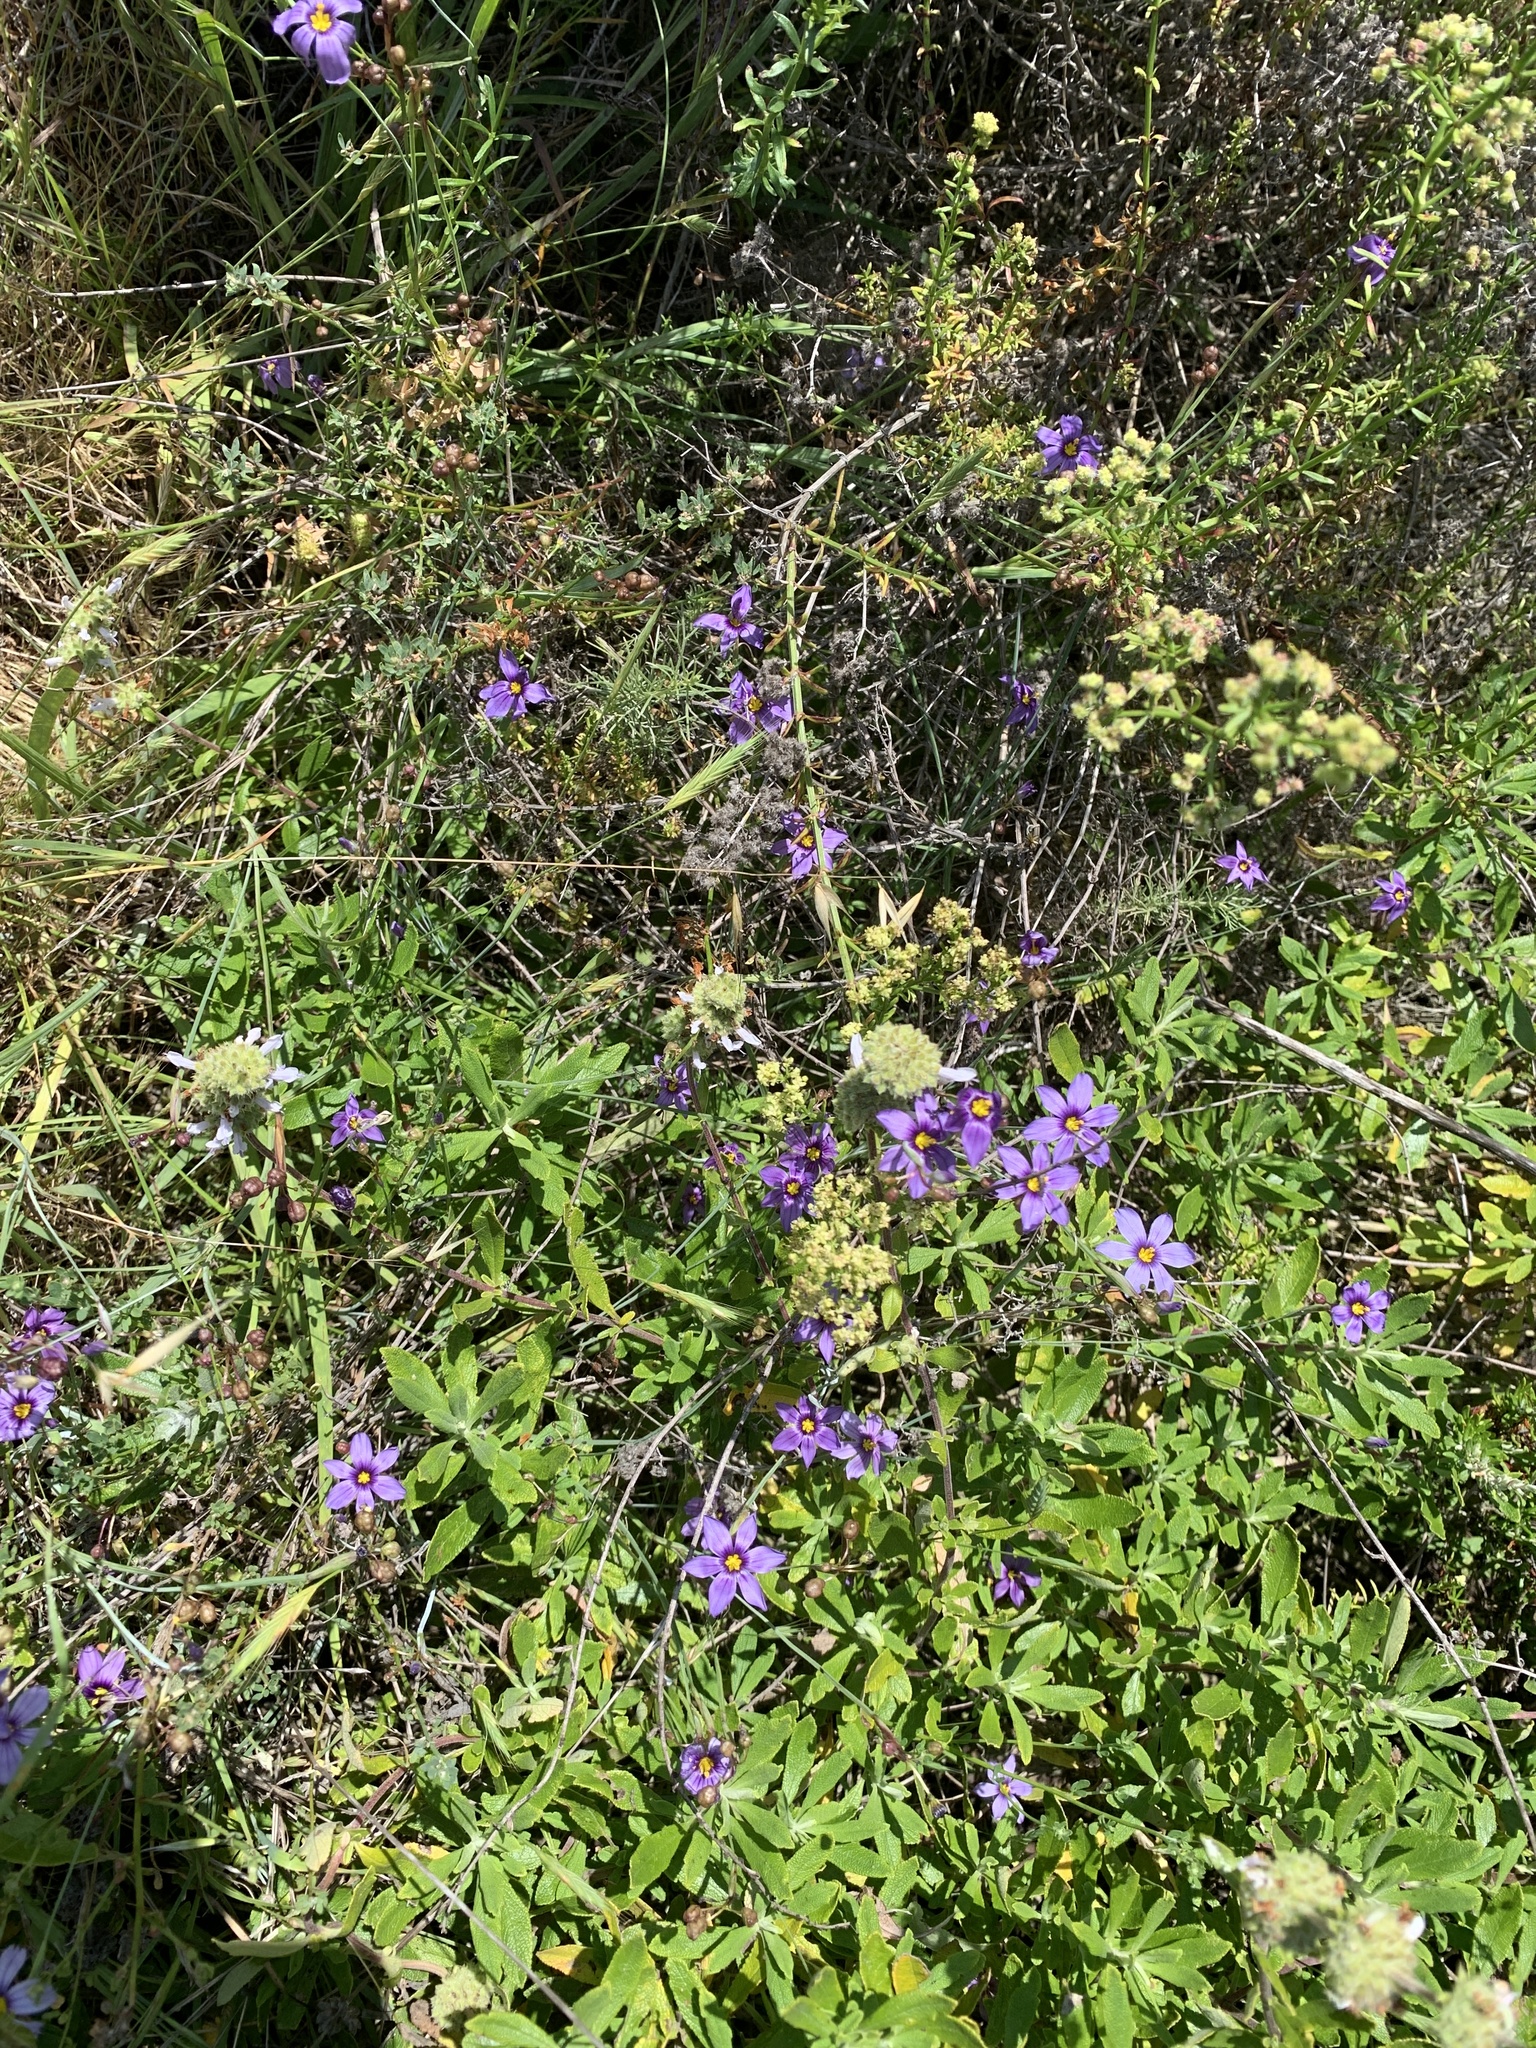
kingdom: Plantae
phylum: Tracheophyta
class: Liliopsida
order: Asparagales
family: Iridaceae
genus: Sisyrinchium
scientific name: Sisyrinchium bellum
